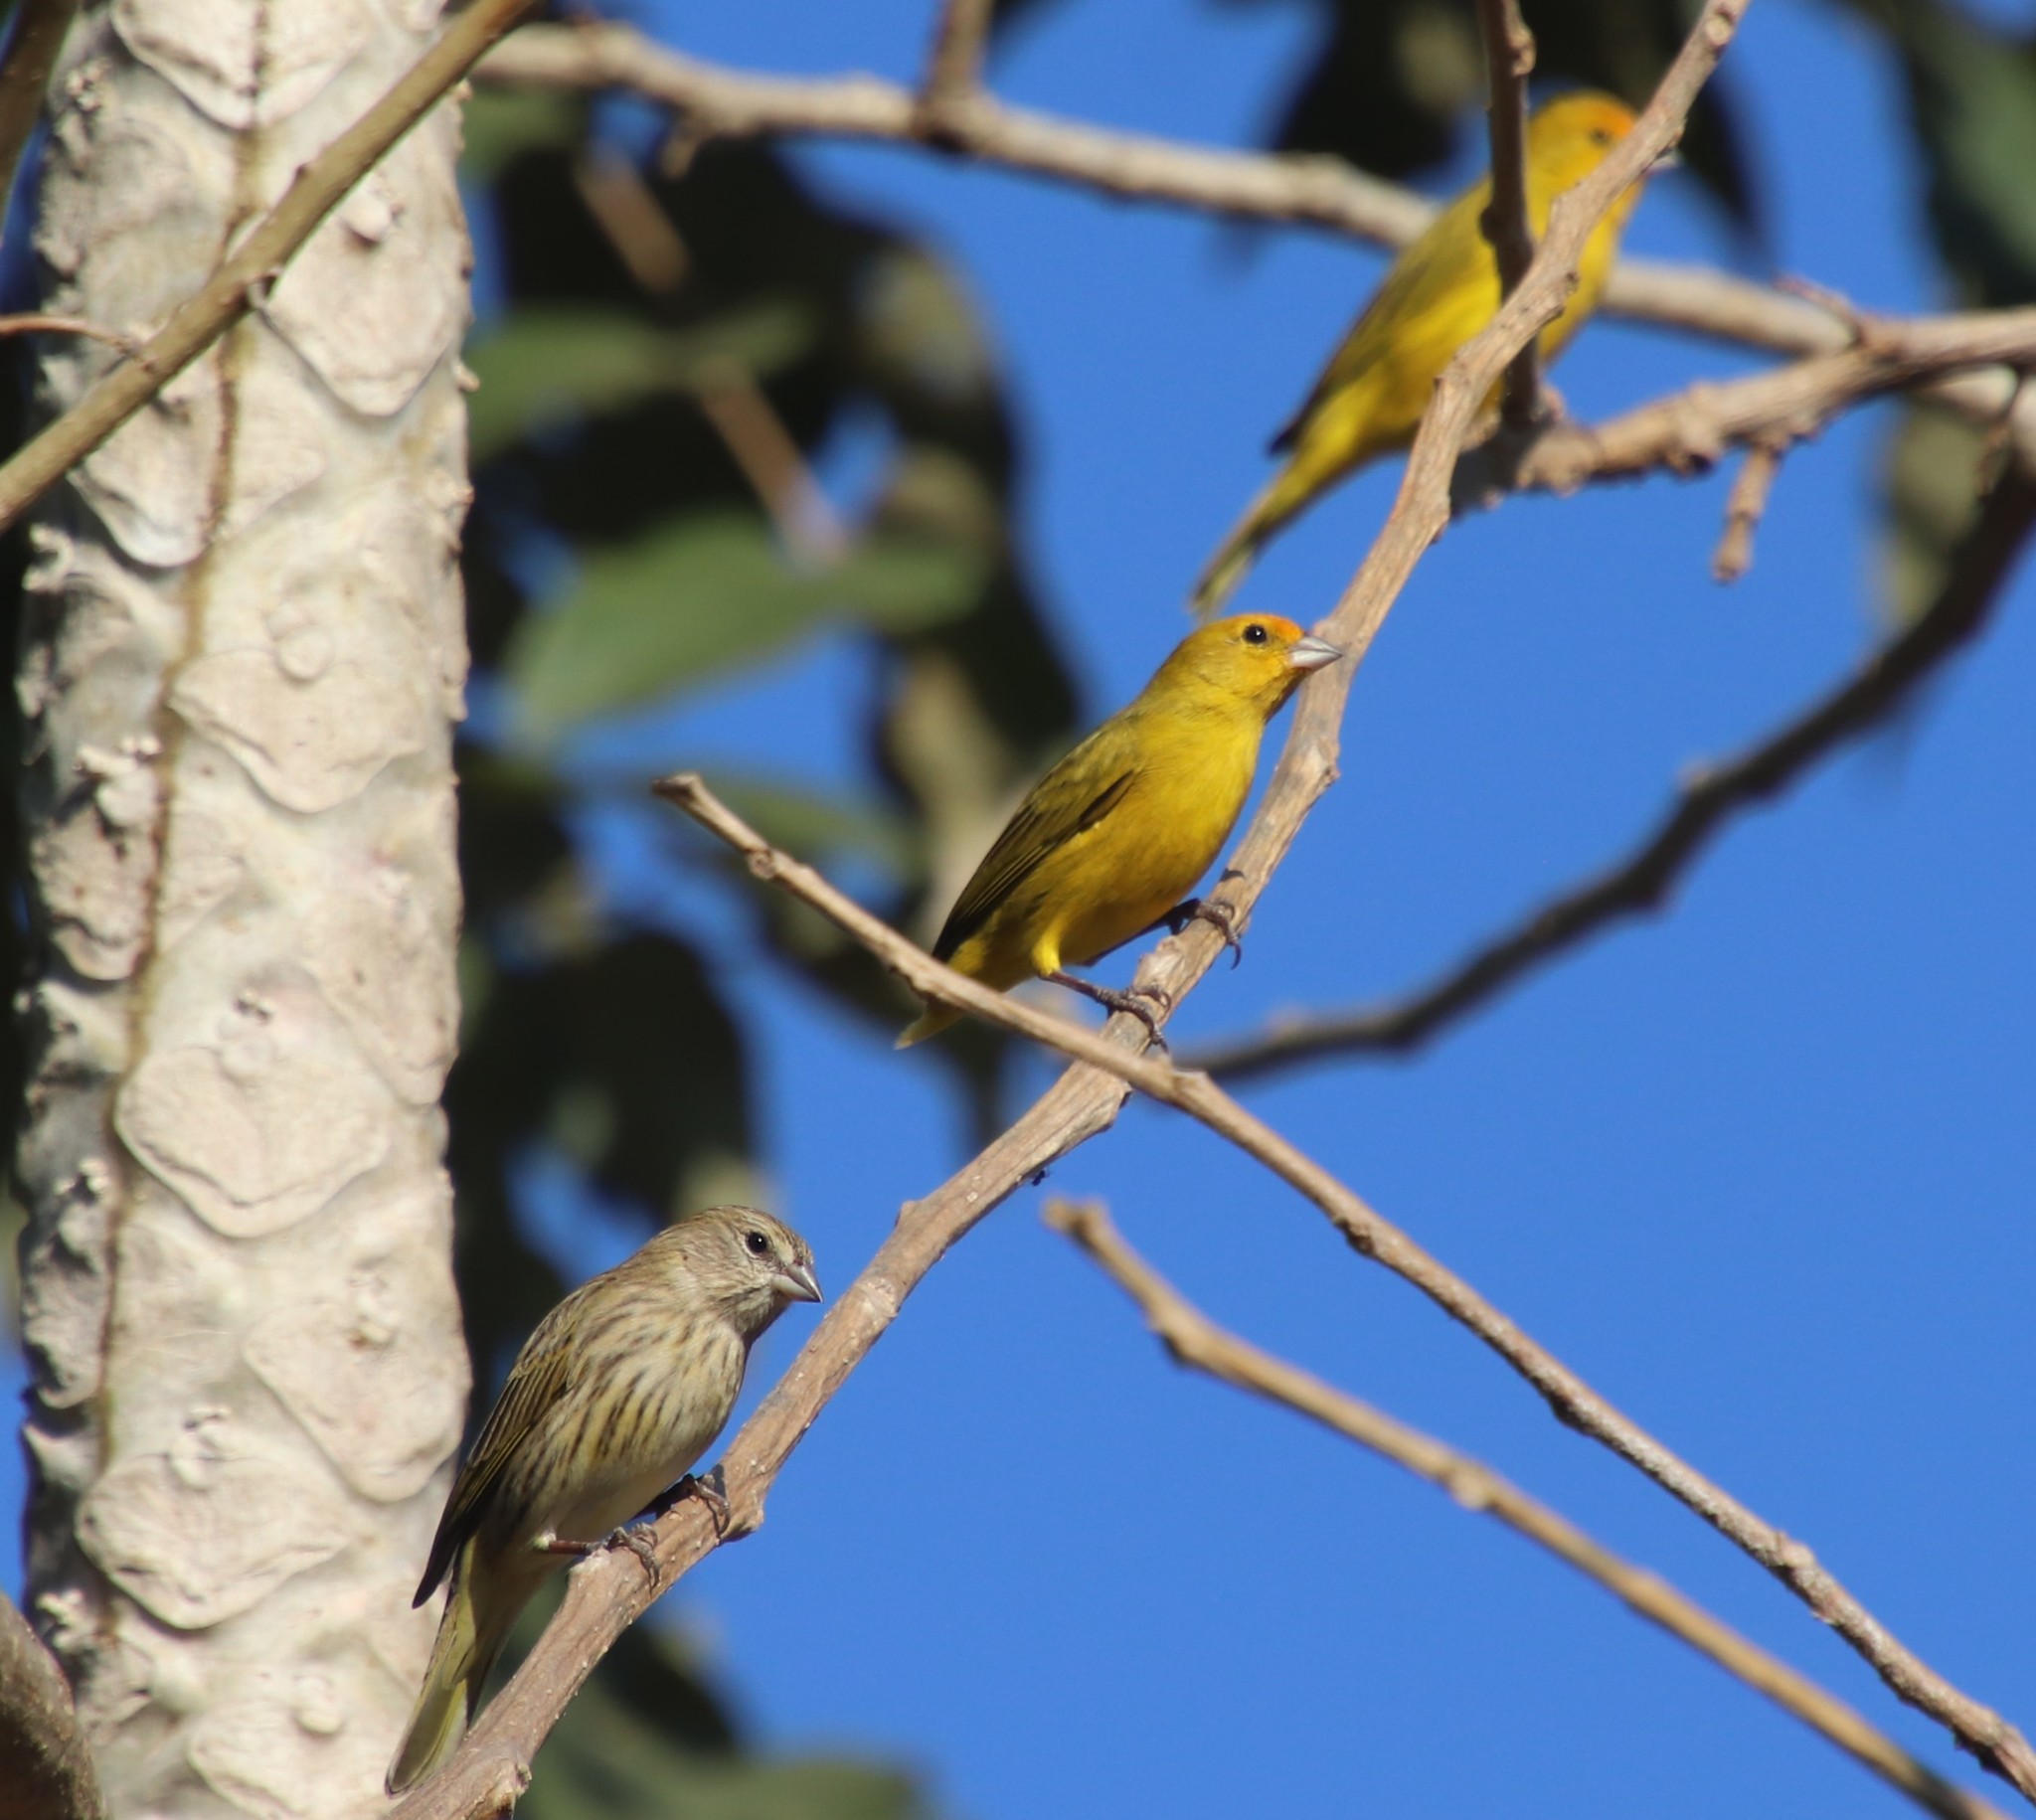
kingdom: Animalia
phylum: Chordata
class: Aves
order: Passeriformes
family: Thraupidae
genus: Sicalis
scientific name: Sicalis flaveola
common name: Saffron finch
